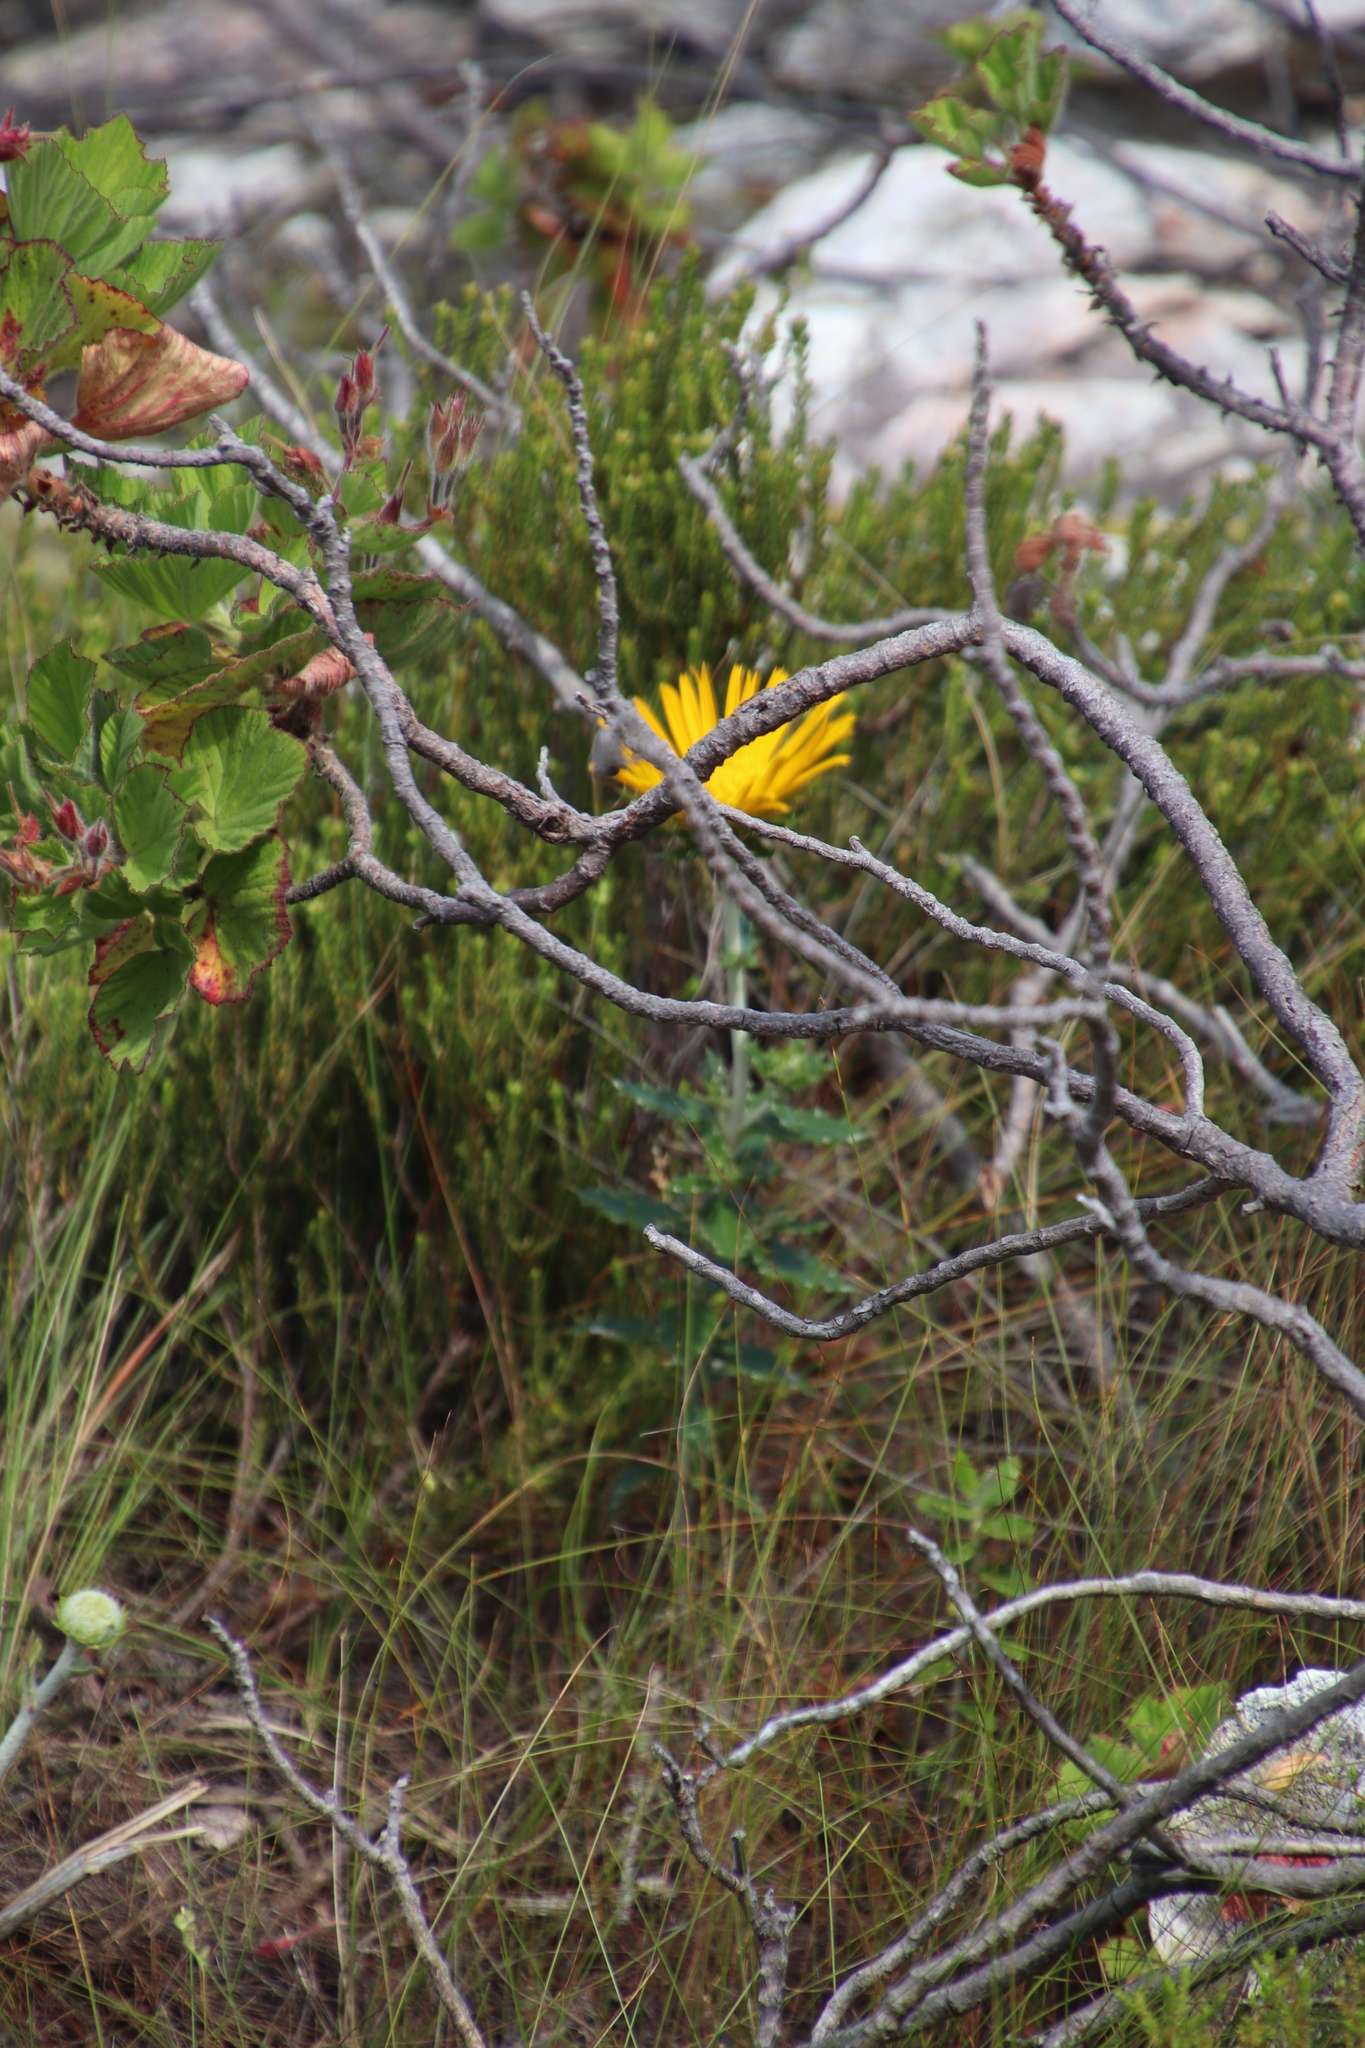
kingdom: Plantae
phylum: Tracheophyta
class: Magnoliopsida
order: Asterales
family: Asteraceae
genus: Berkheya
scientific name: Berkheya barbata
